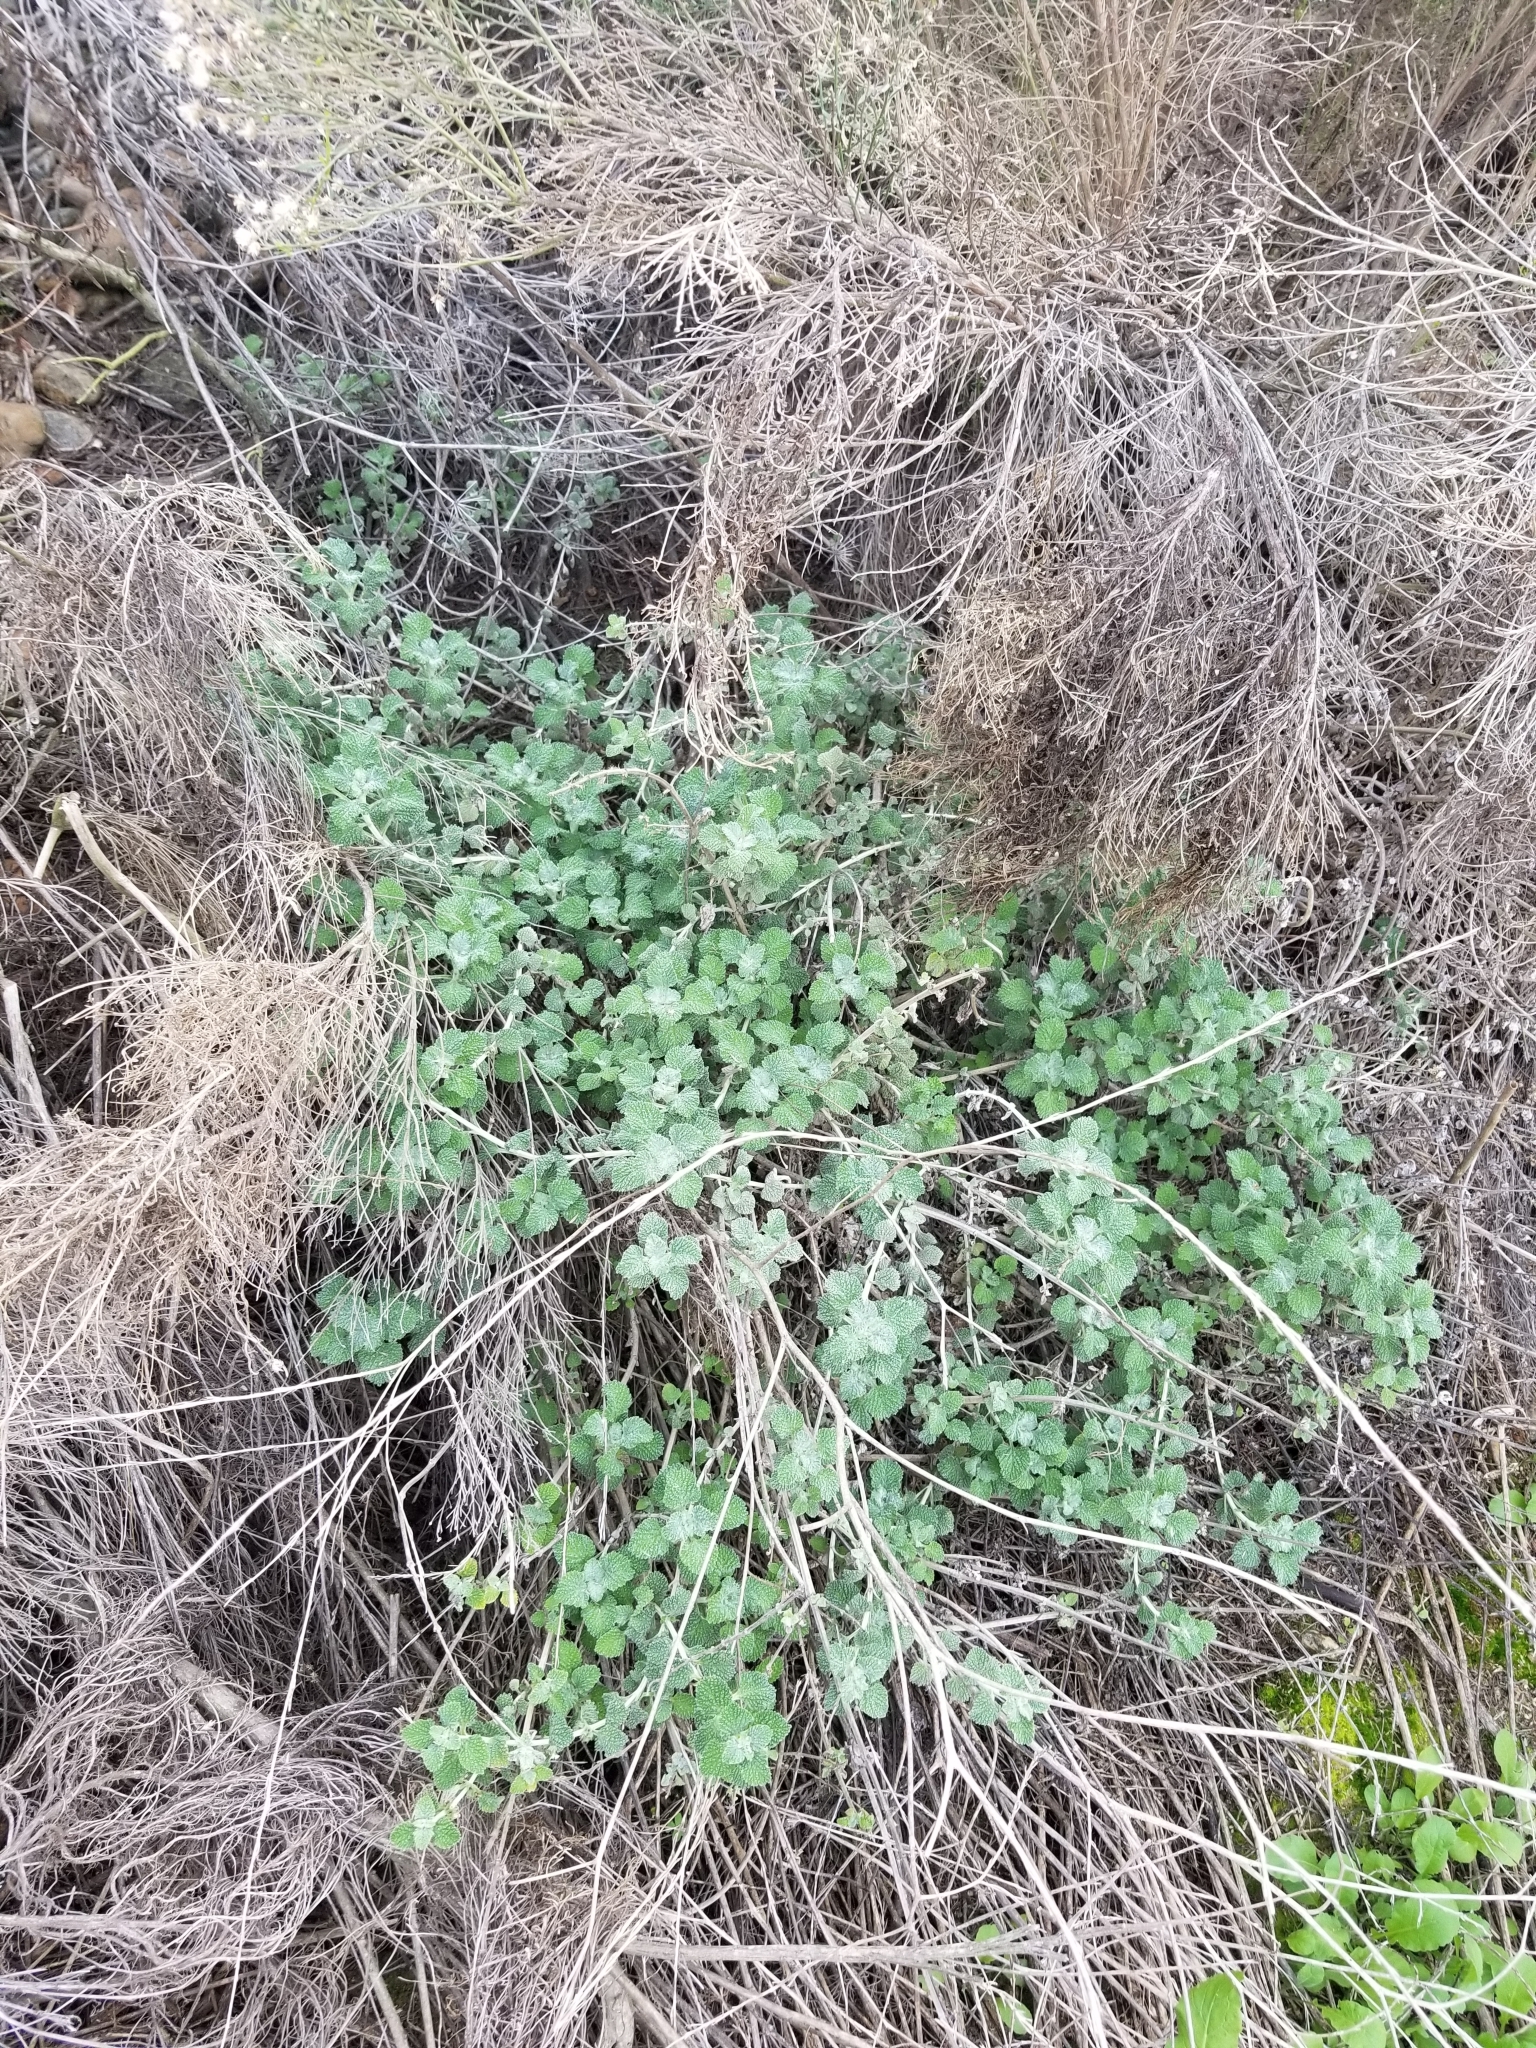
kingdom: Plantae
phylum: Tracheophyta
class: Magnoliopsida
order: Lamiales
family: Lamiaceae
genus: Marrubium
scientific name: Marrubium vulgare
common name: Horehound
